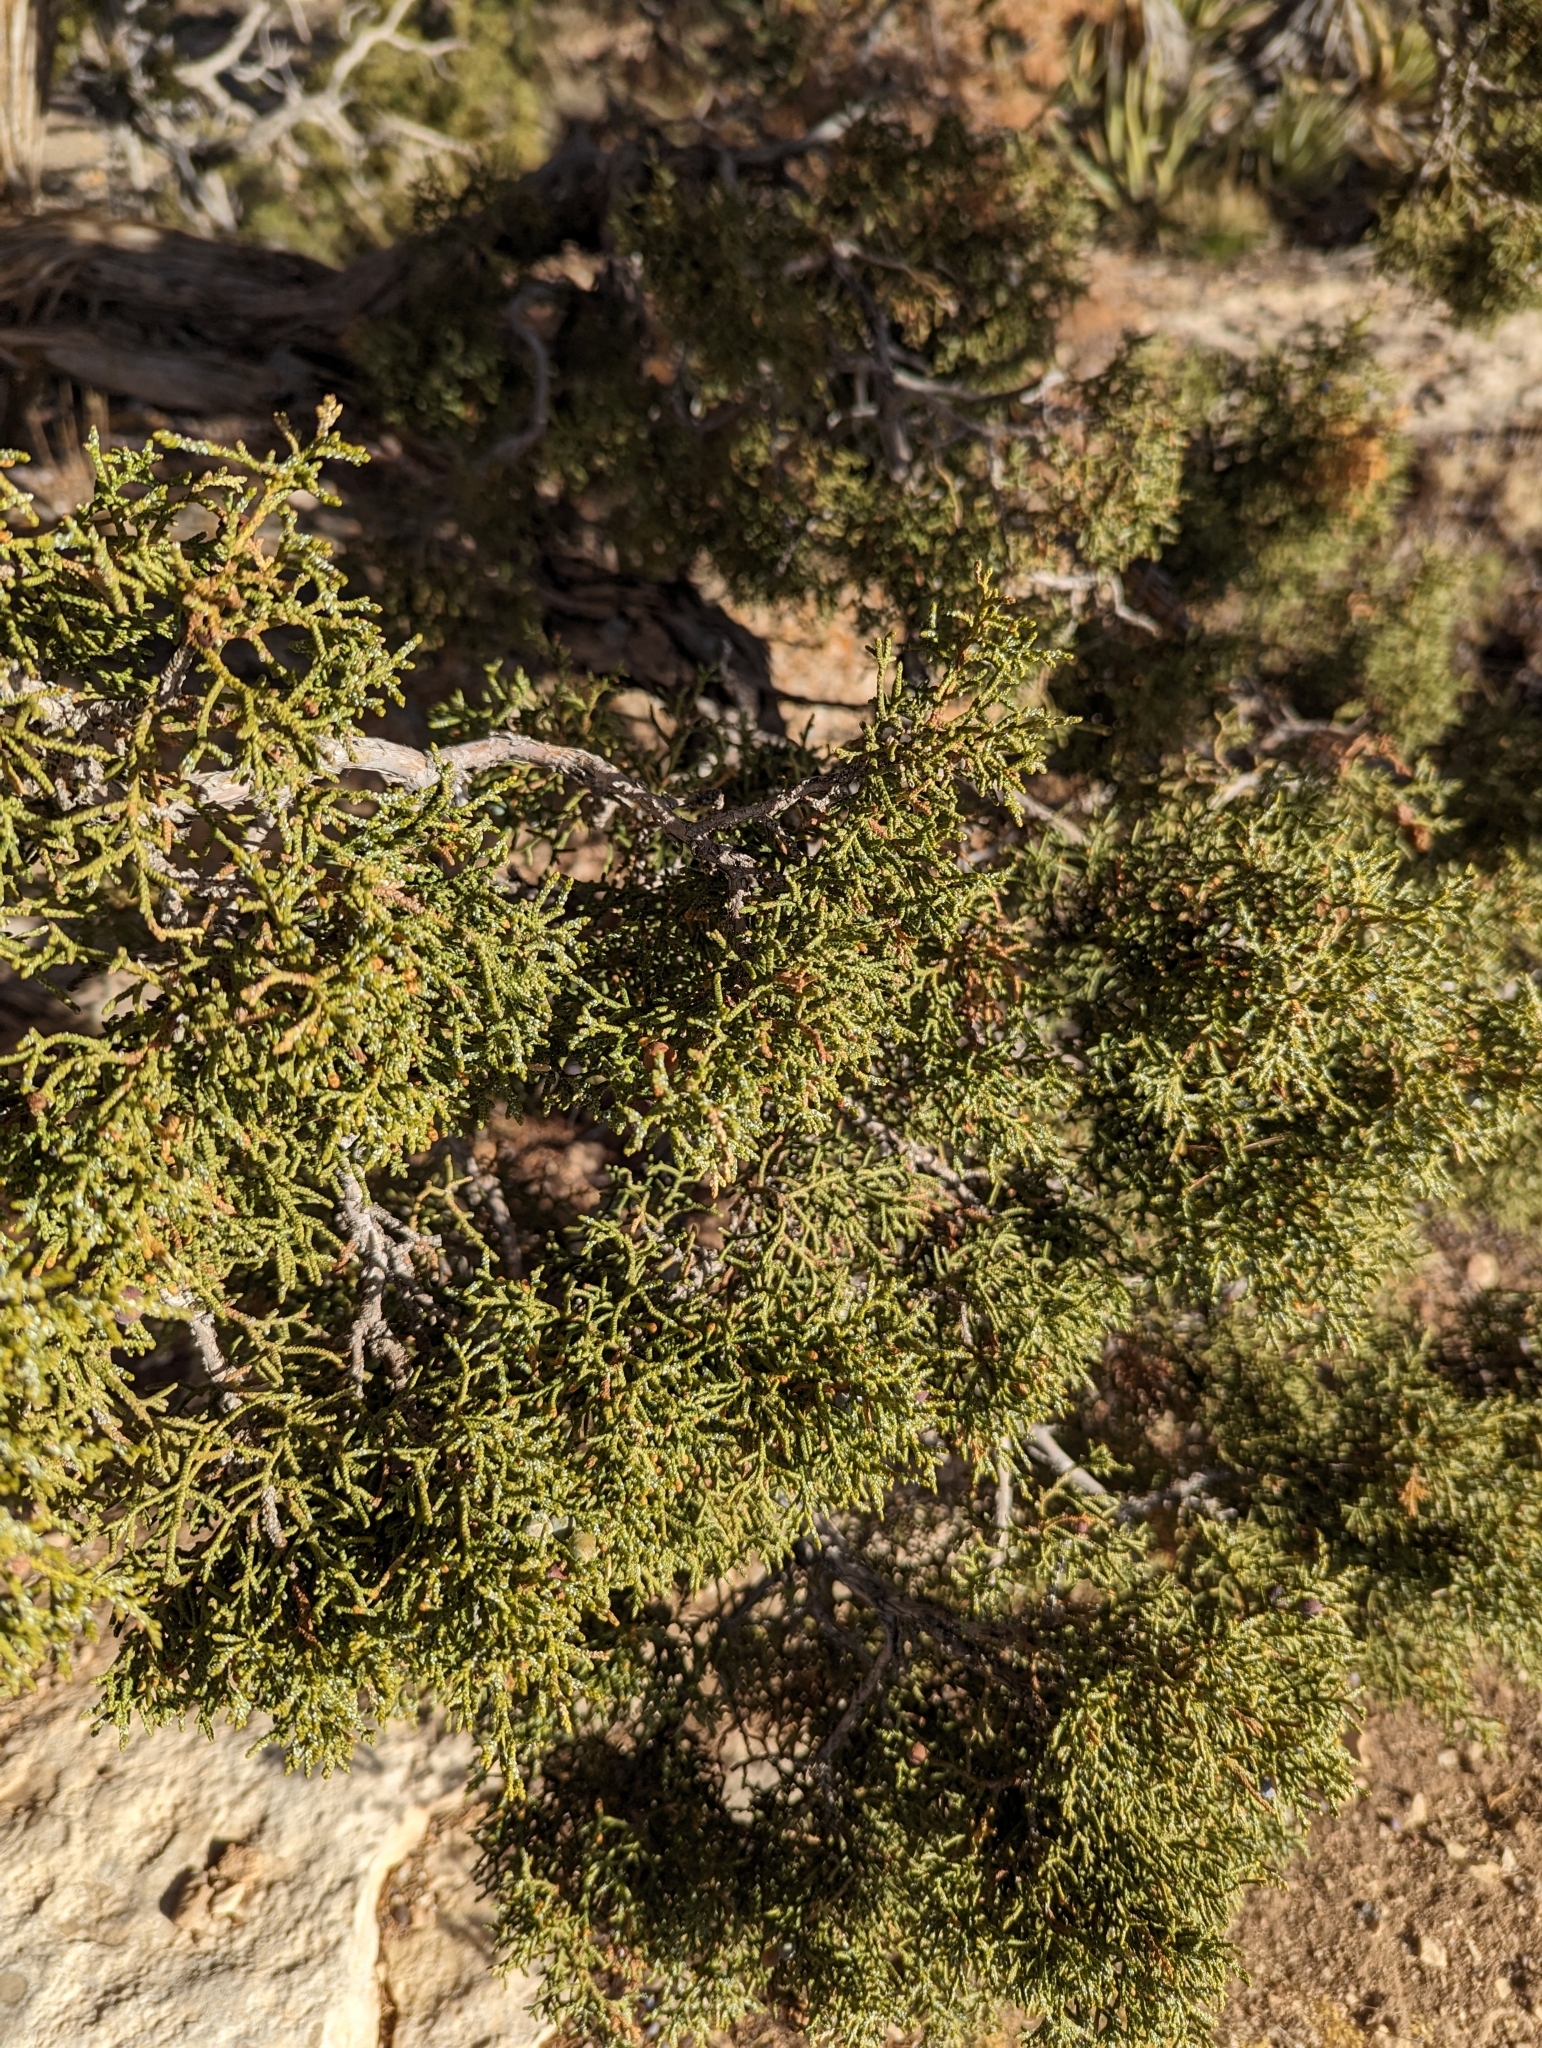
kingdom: Plantae
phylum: Tracheophyta
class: Pinopsida
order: Pinales
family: Cupressaceae
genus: Juniperus
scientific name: Juniperus osteosperma
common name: Utah juniper
